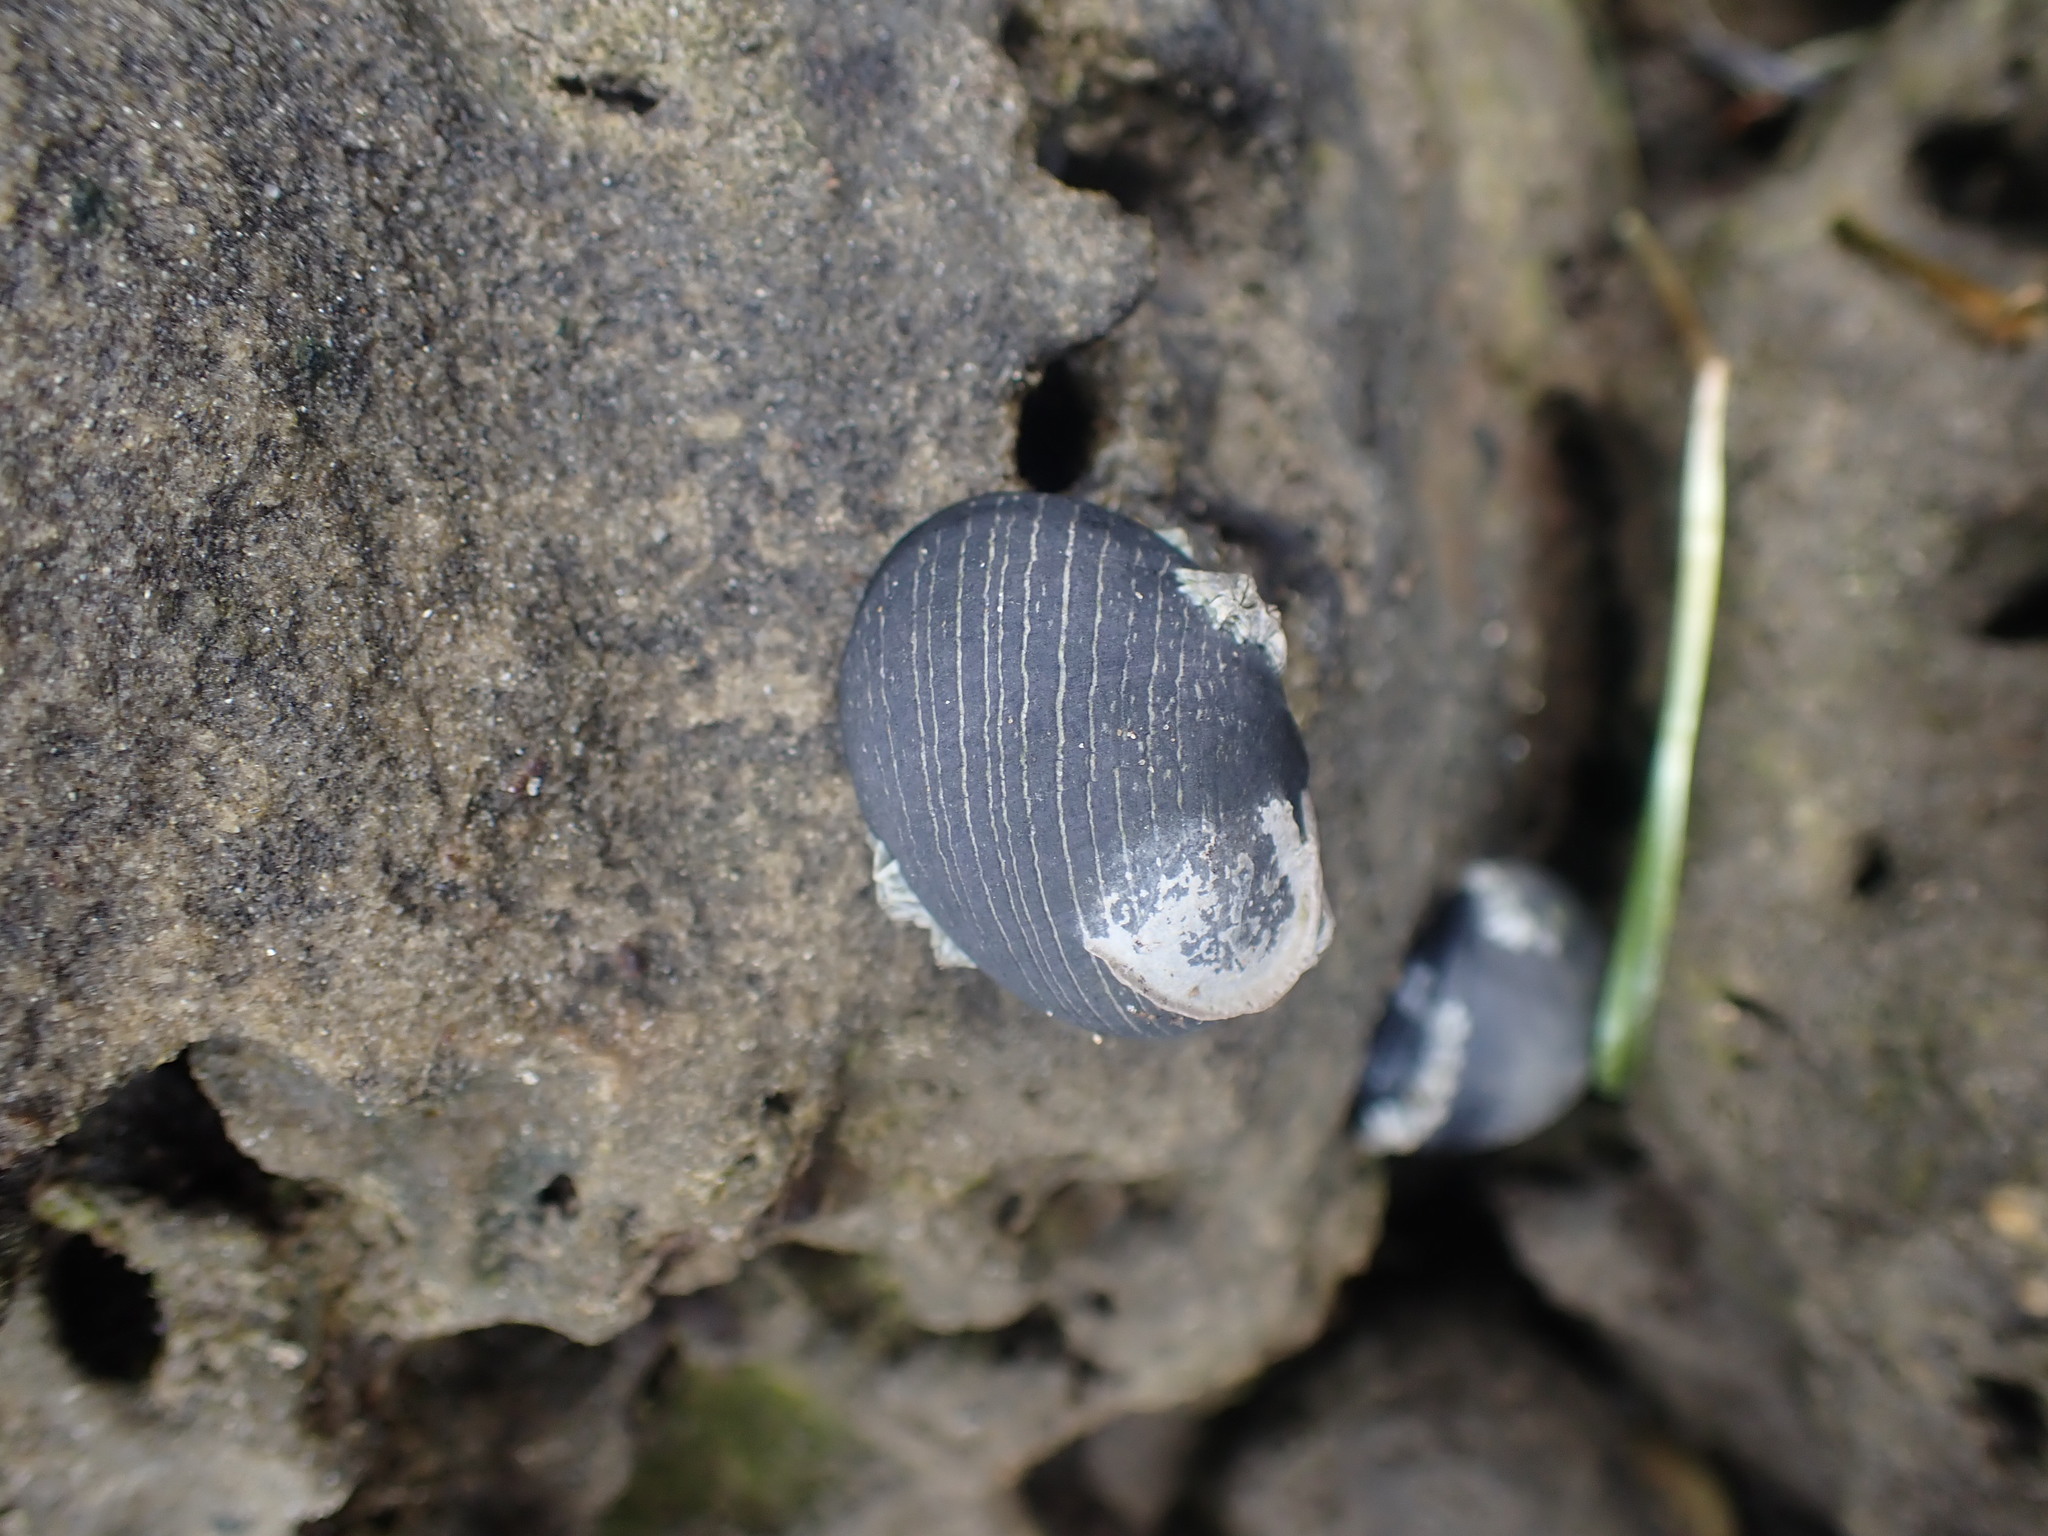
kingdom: Animalia
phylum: Mollusca
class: Gastropoda
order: Cycloneritida
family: Neritidae
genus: Nerita
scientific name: Nerita melanotragus
